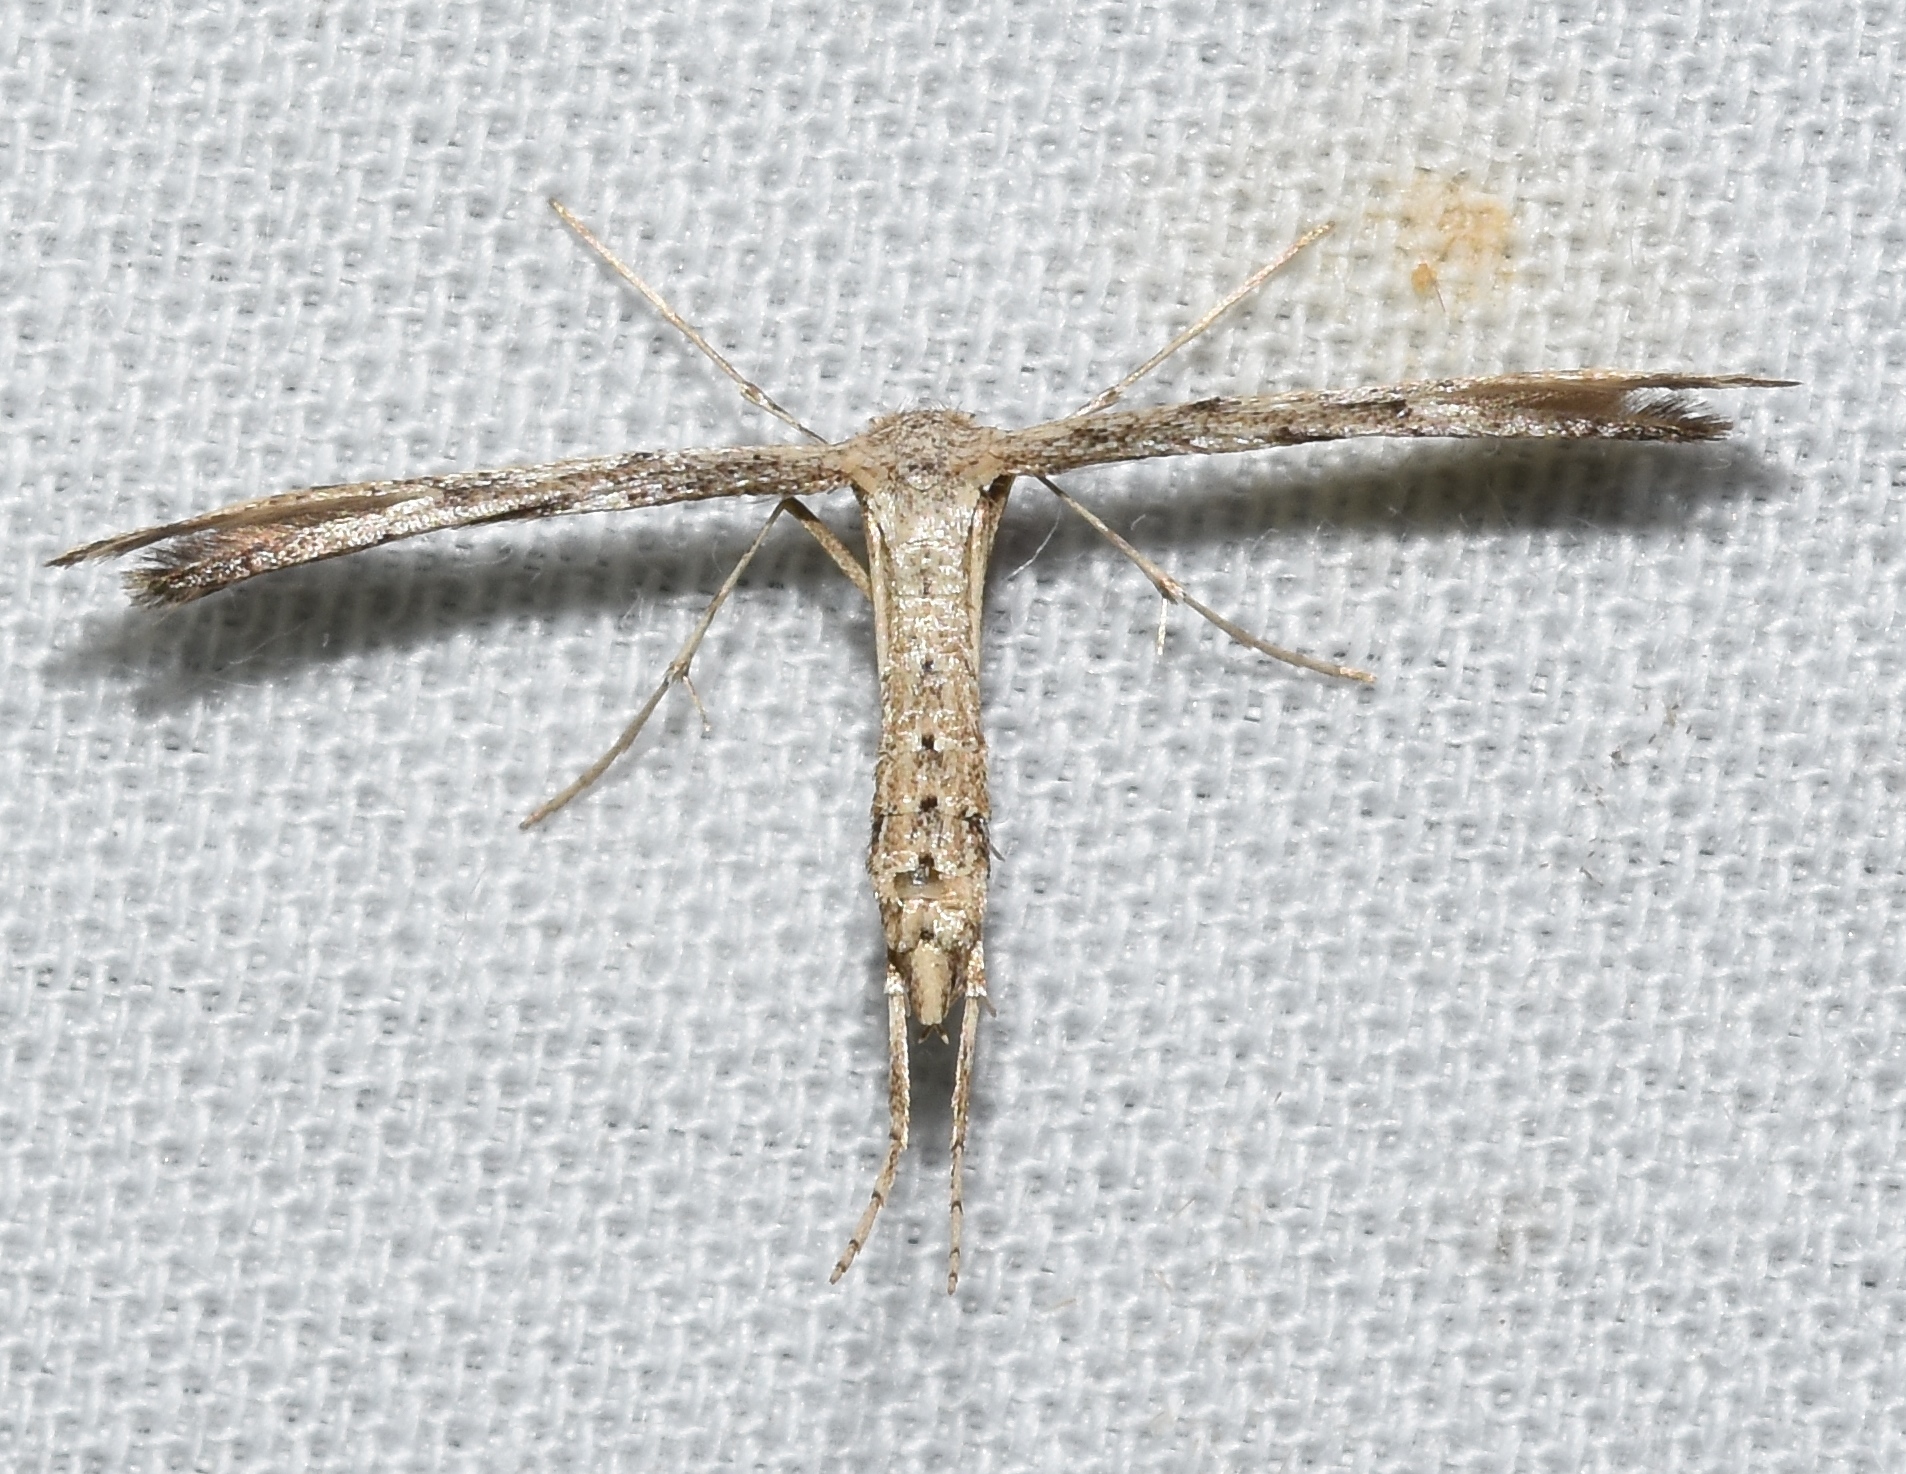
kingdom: Animalia
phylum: Arthropoda
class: Insecta
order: Lepidoptera
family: Pterophoridae
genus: Adaina
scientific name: Adaina ambrosiae
